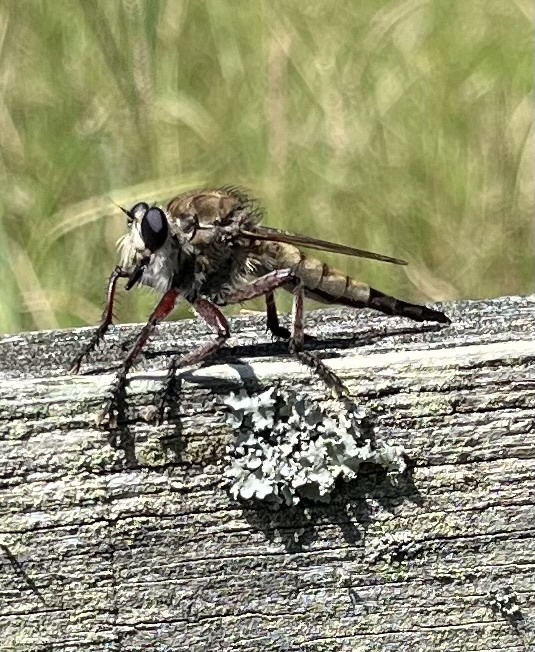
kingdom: Animalia
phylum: Arthropoda
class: Insecta
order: Diptera
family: Asilidae
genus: Promachus
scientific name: Promachus hinei
